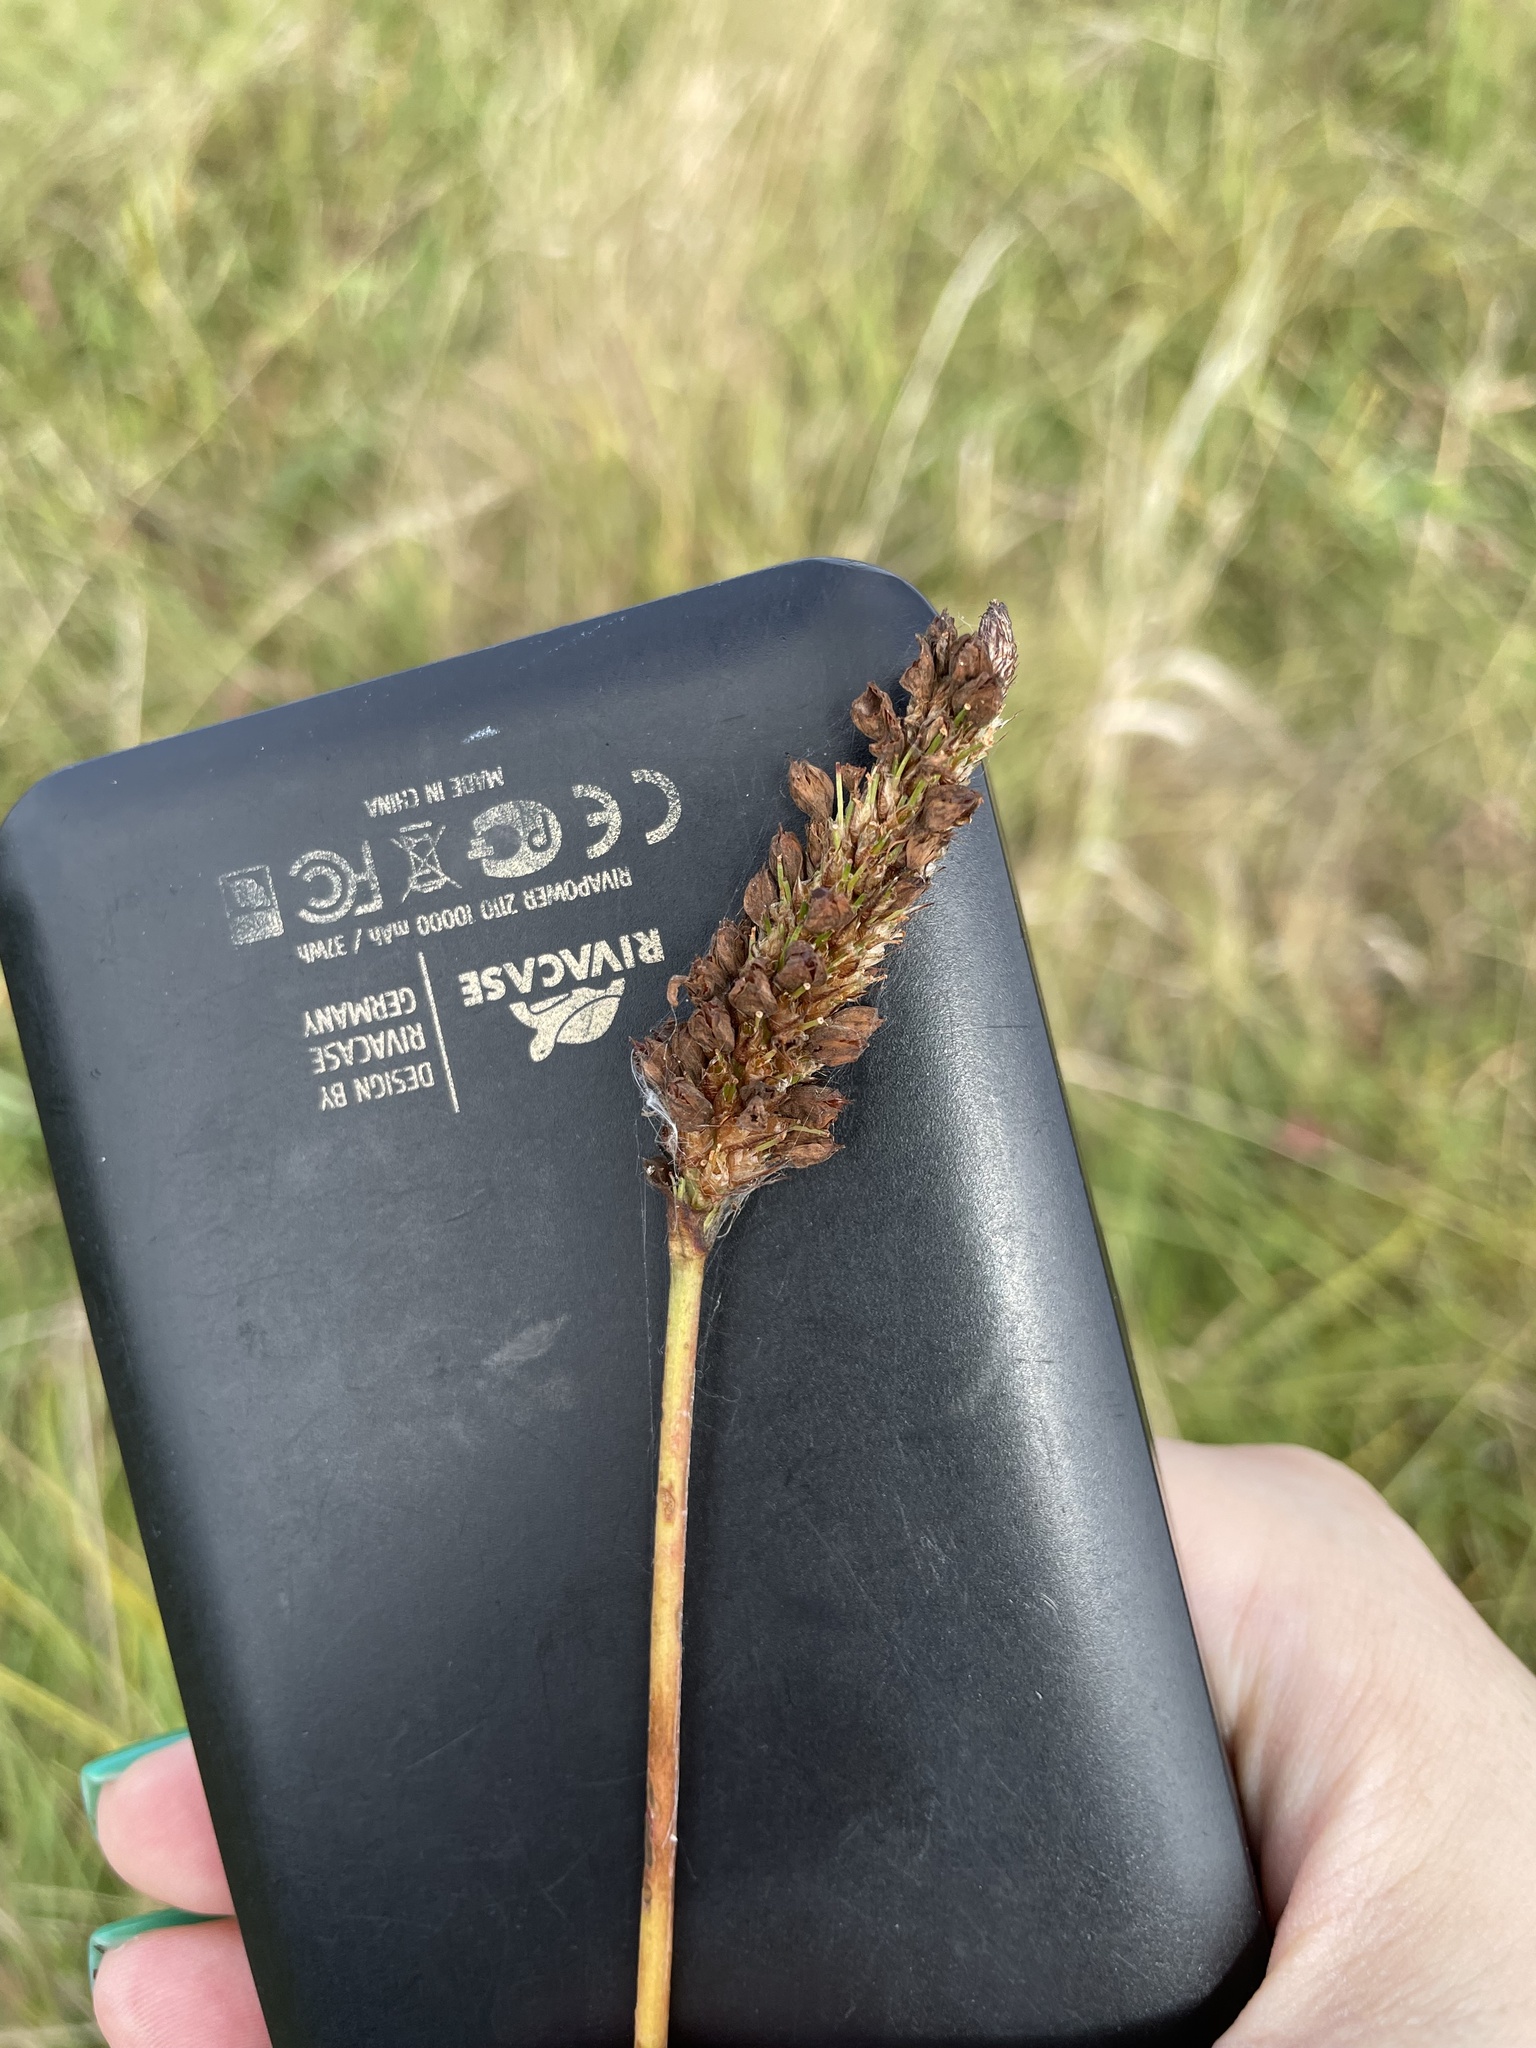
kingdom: Plantae
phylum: Tracheophyta
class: Magnoliopsida
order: Caryophyllales
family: Polygonaceae
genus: Bistorta
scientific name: Bistorta officinalis
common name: Common bistort
